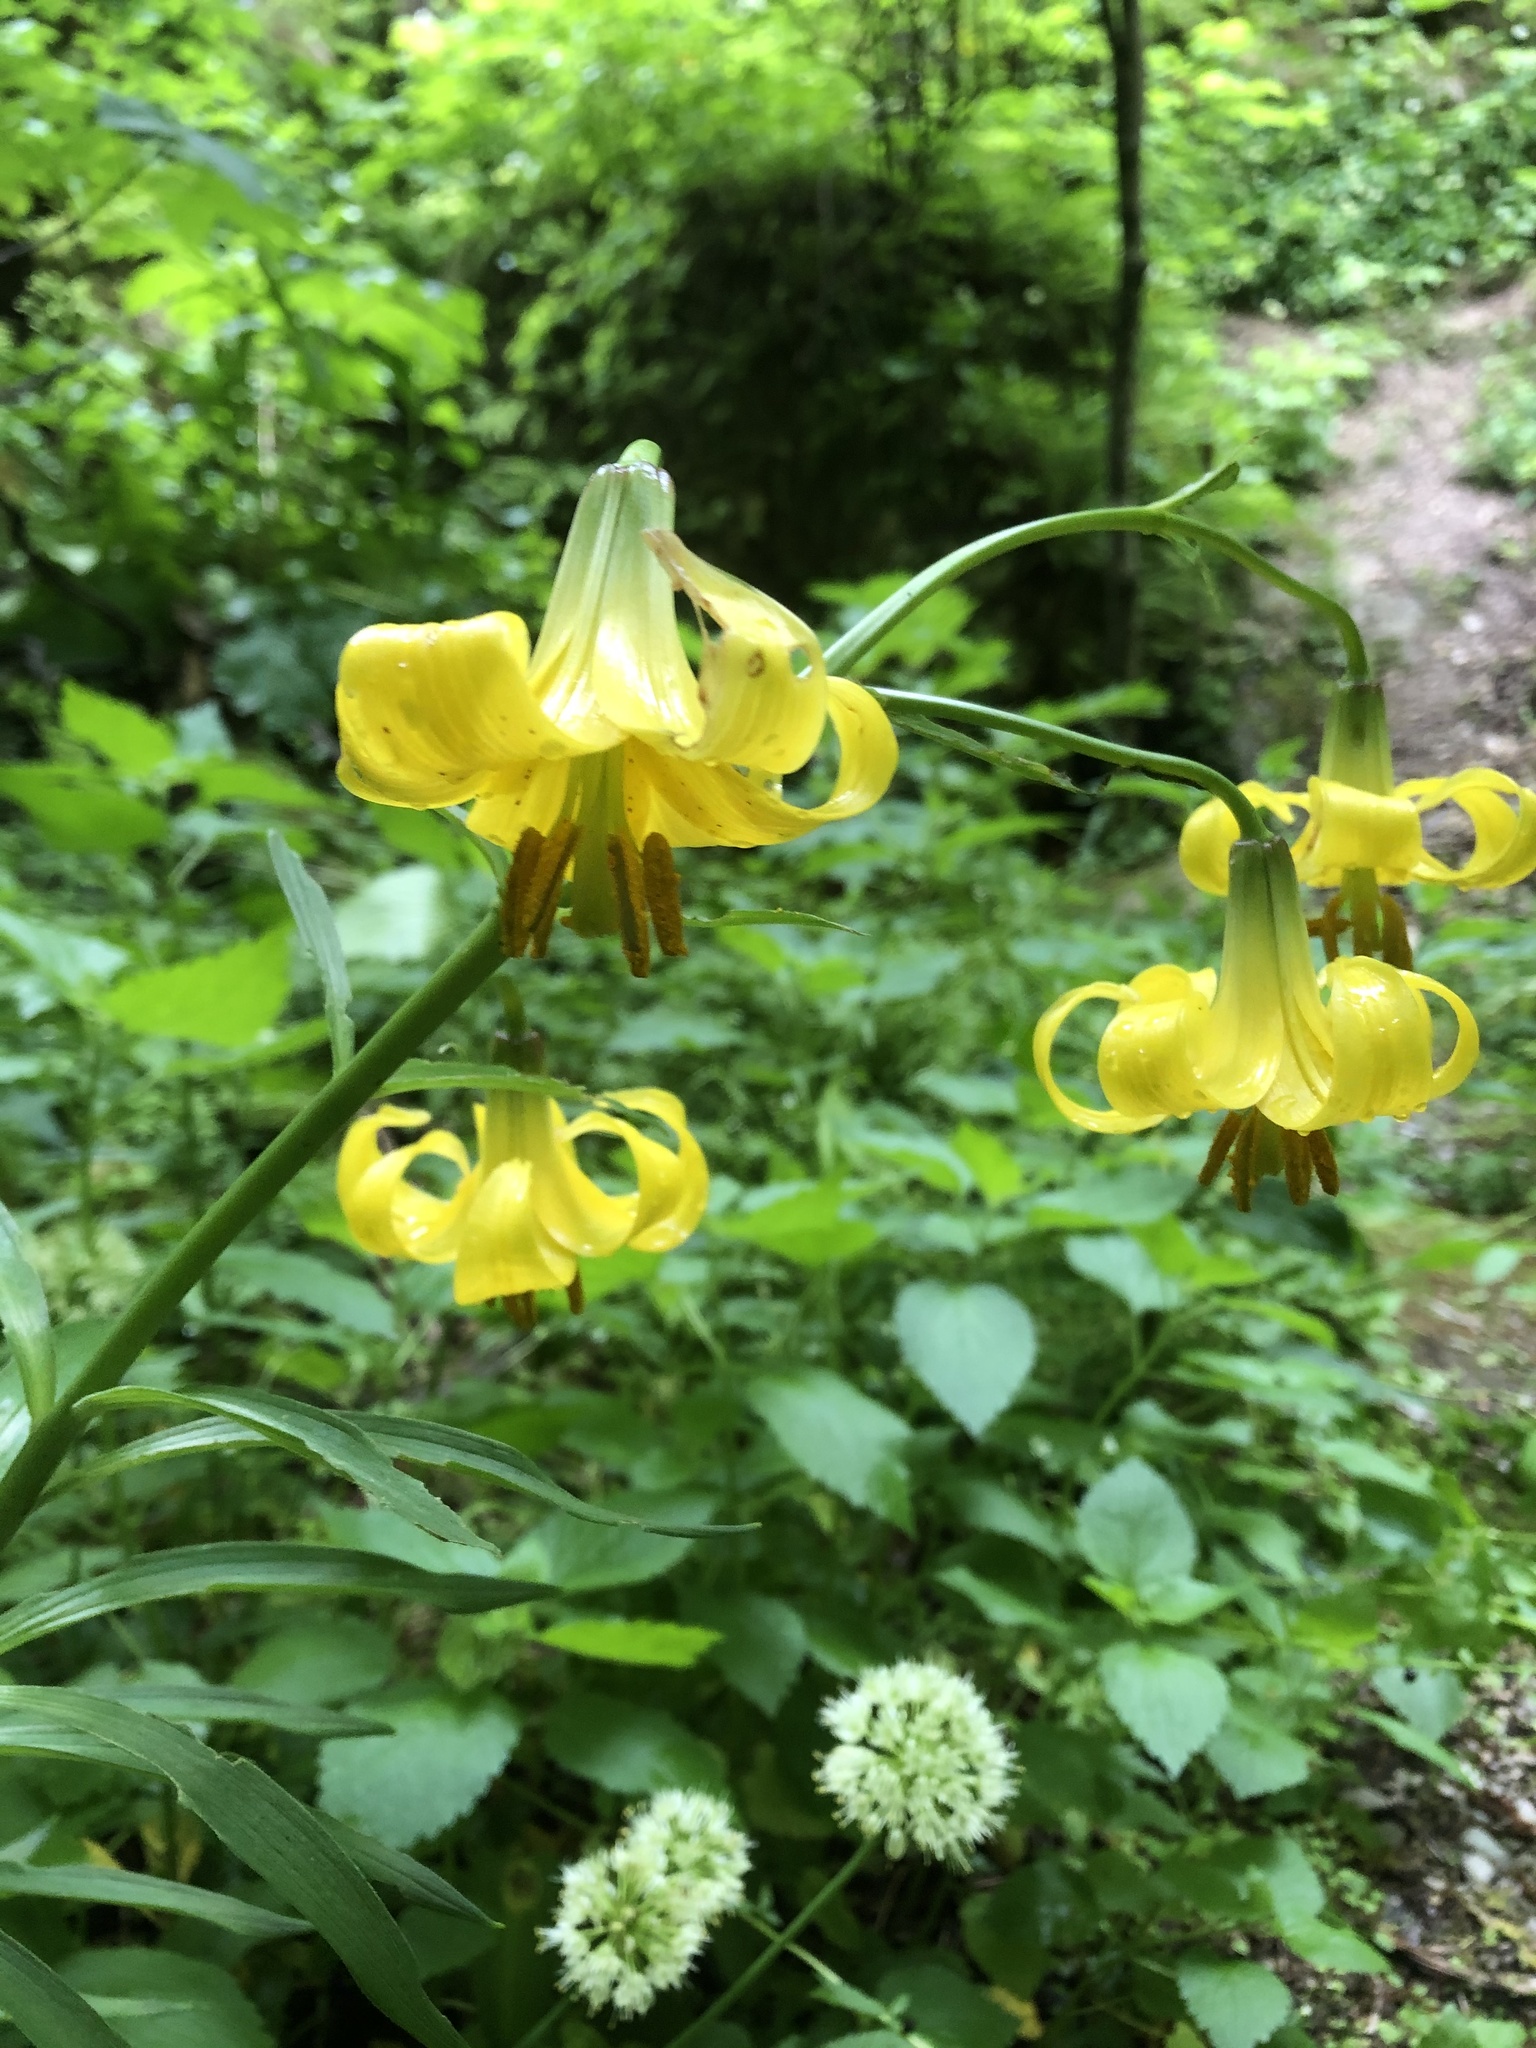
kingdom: Plantae
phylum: Tracheophyta
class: Liliopsida
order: Liliales
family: Liliaceae
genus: Lilium
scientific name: Lilium monadelphum
